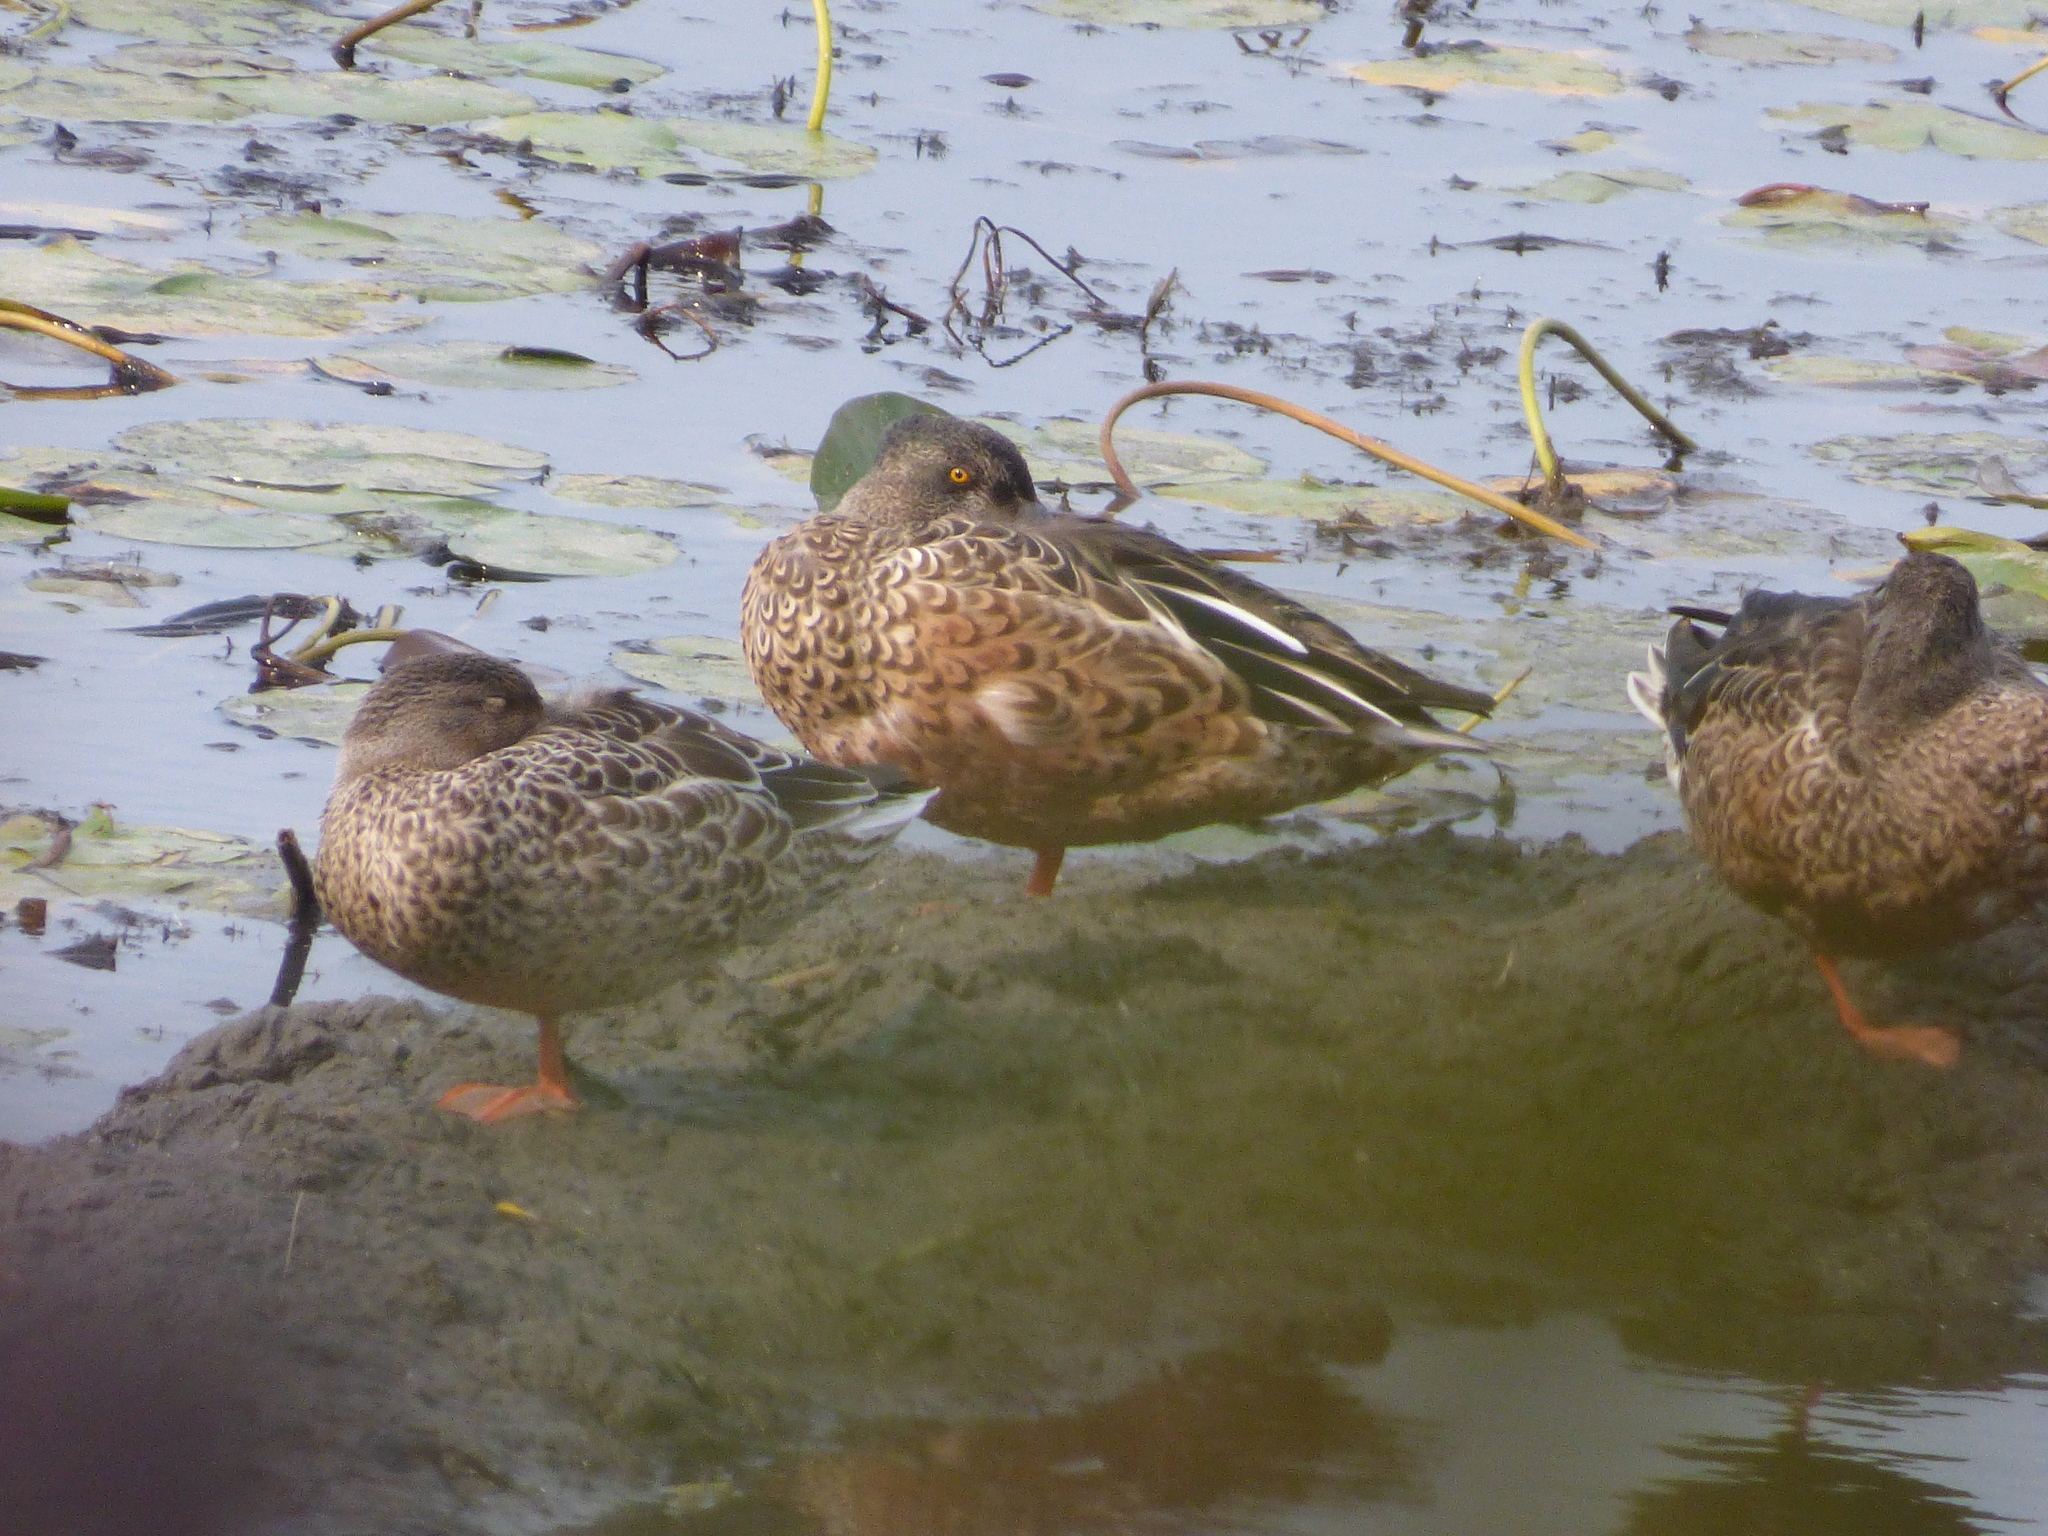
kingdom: Animalia
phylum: Chordata
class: Aves
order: Anseriformes
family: Anatidae
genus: Spatula
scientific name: Spatula clypeata
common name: Northern shoveler
